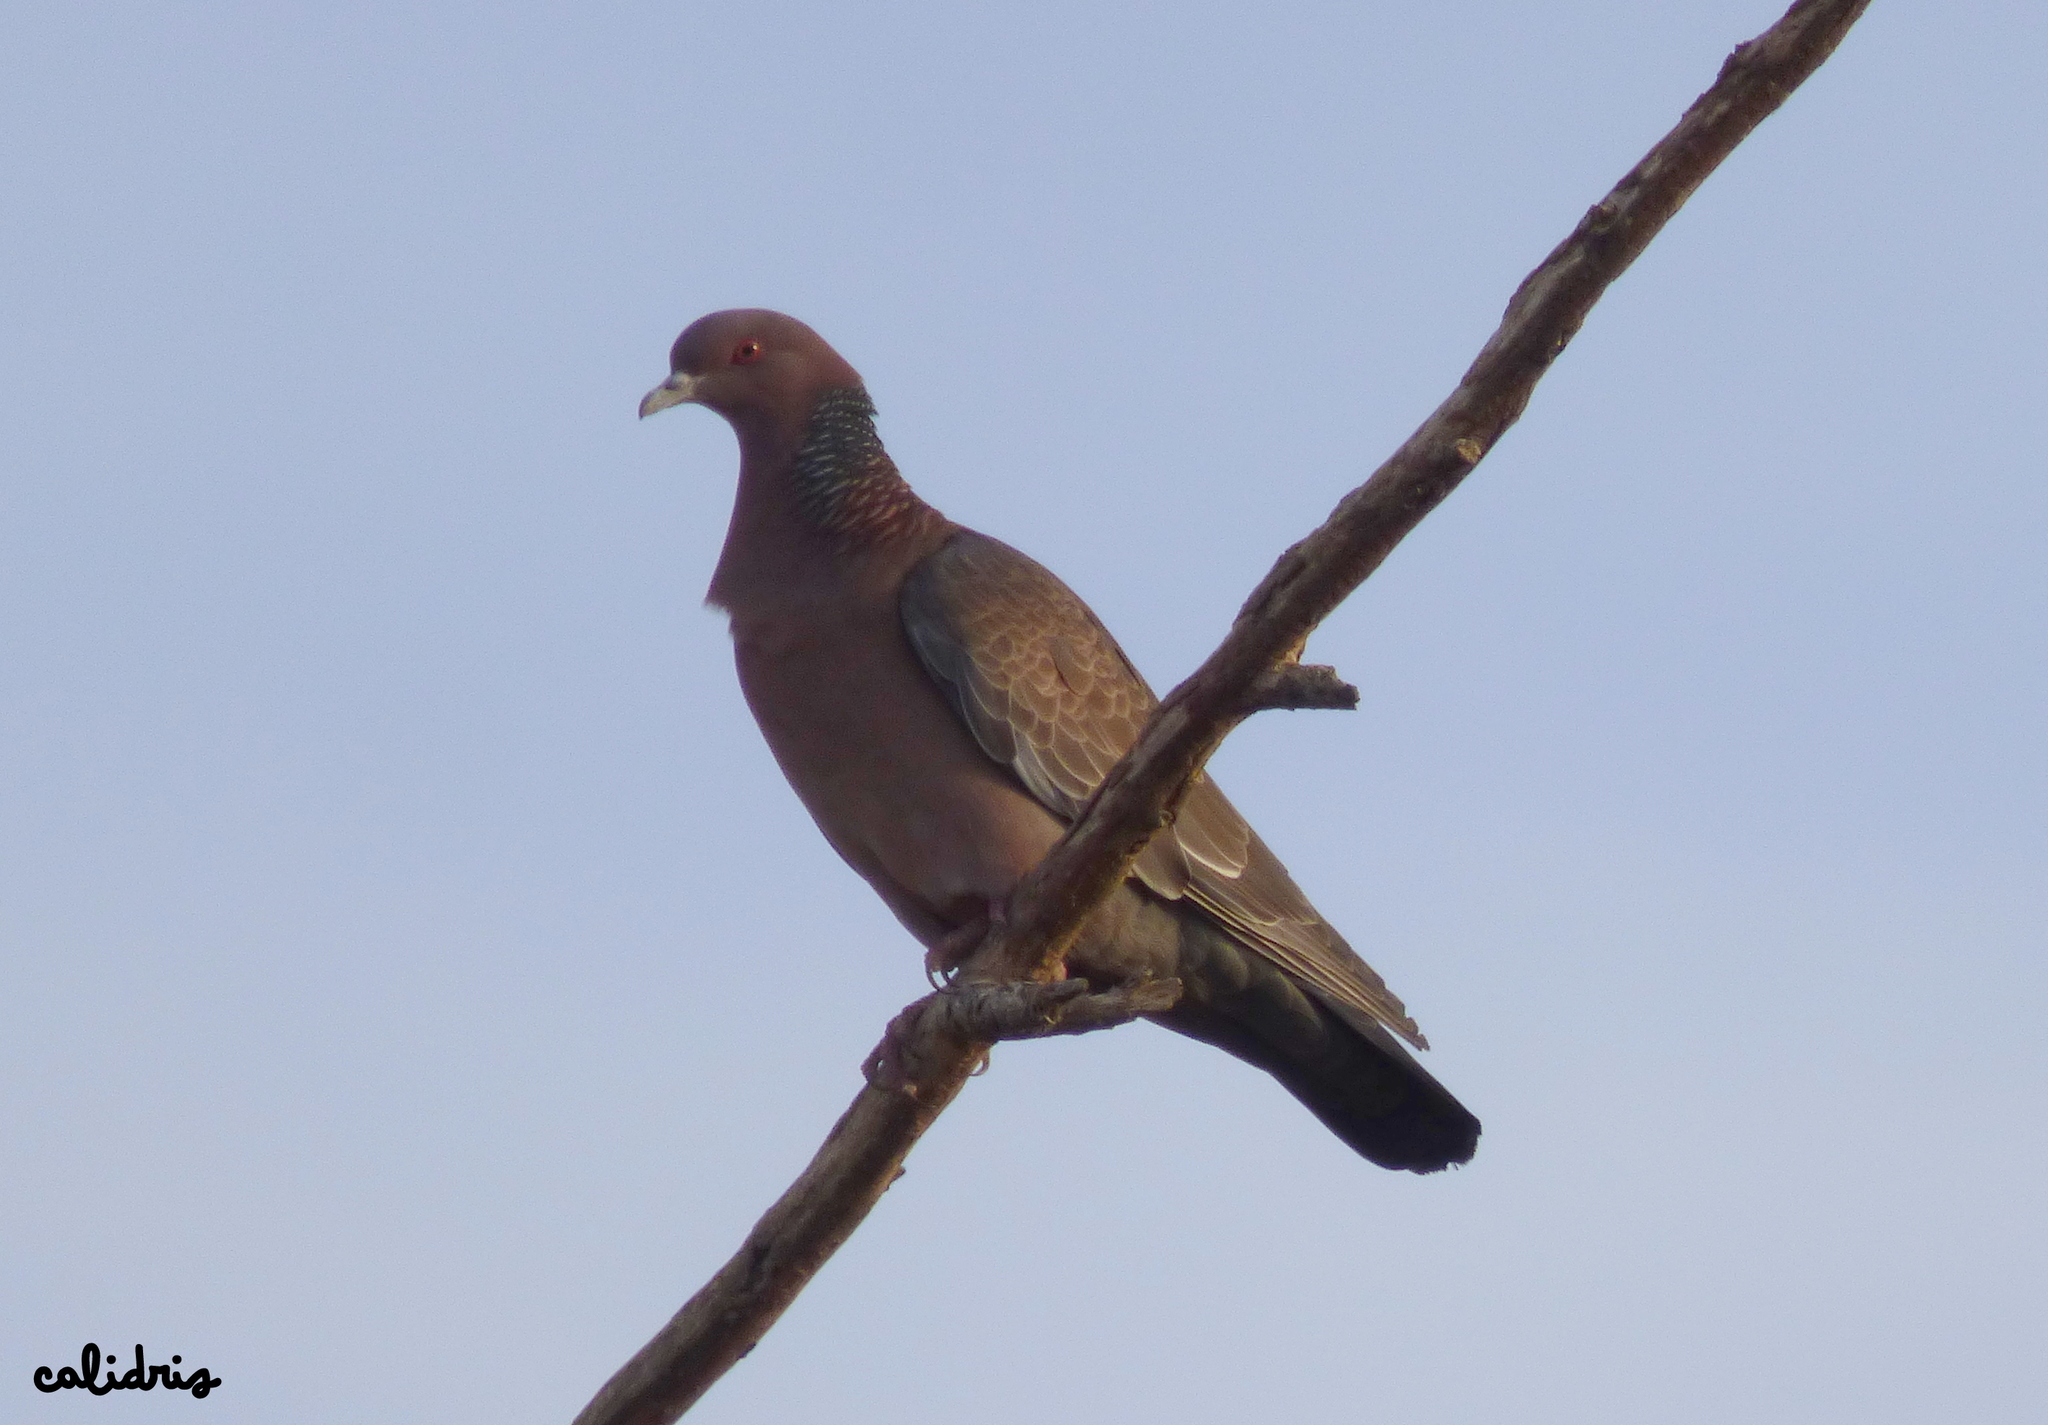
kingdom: Animalia
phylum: Chordata
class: Aves
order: Columbiformes
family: Columbidae
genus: Patagioenas
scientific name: Patagioenas picazuro
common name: Picazuro pigeon
